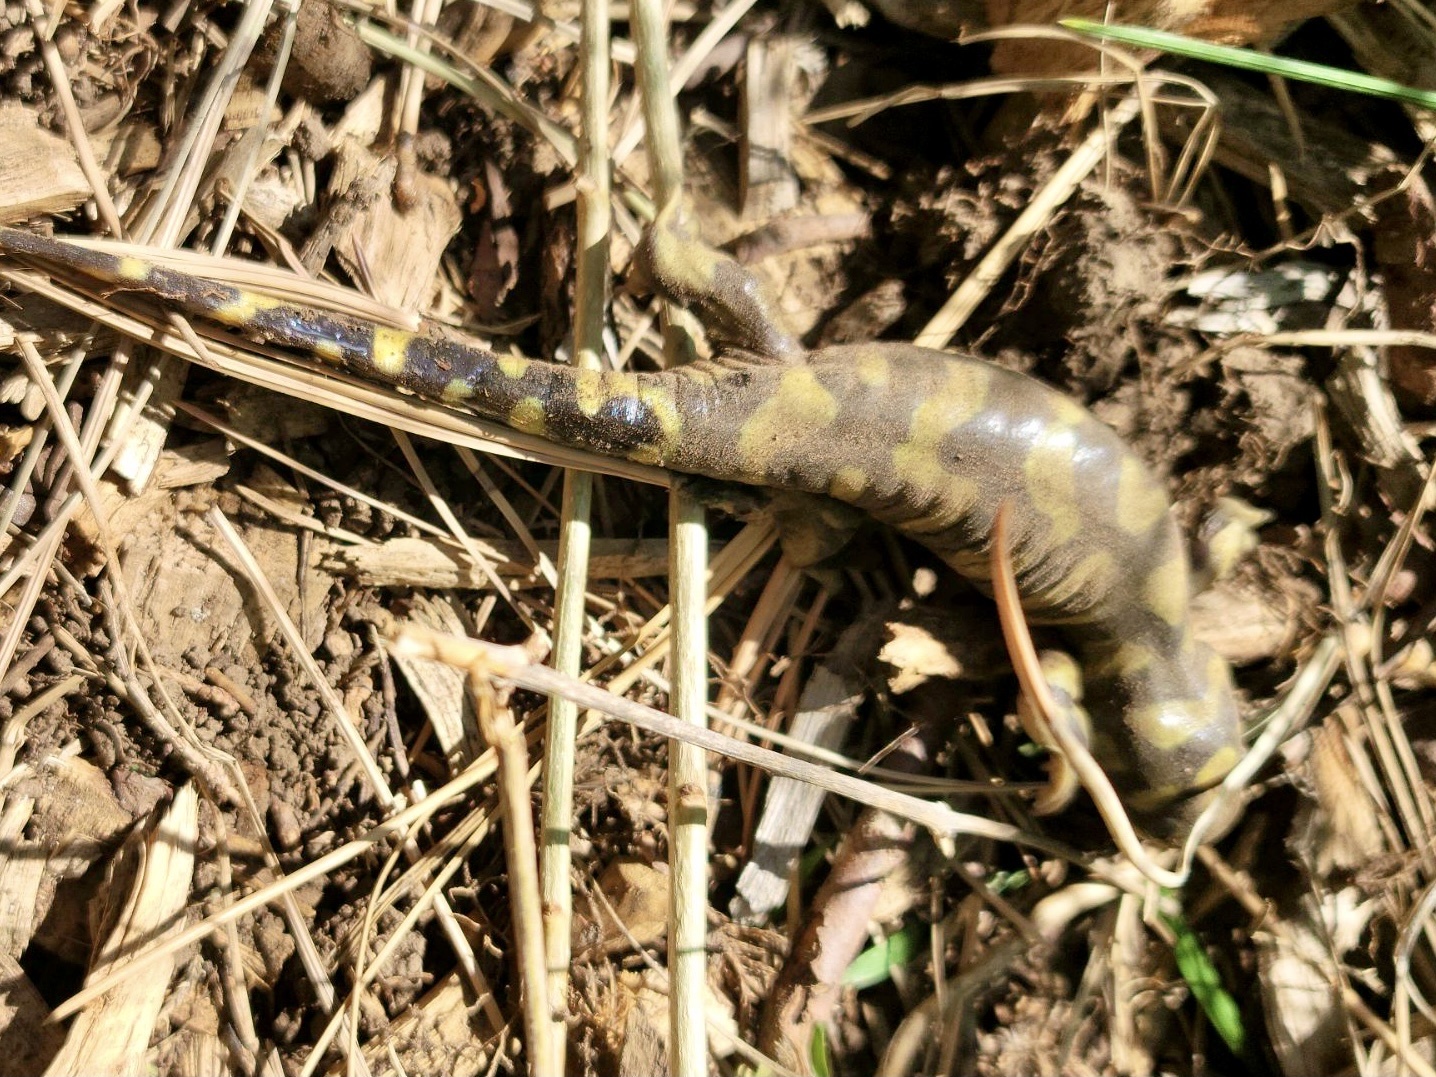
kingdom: Animalia
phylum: Chordata
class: Amphibia
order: Caudata
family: Ambystomatidae
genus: Ambystoma
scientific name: Ambystoma mavortium
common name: Western tiger salamander
